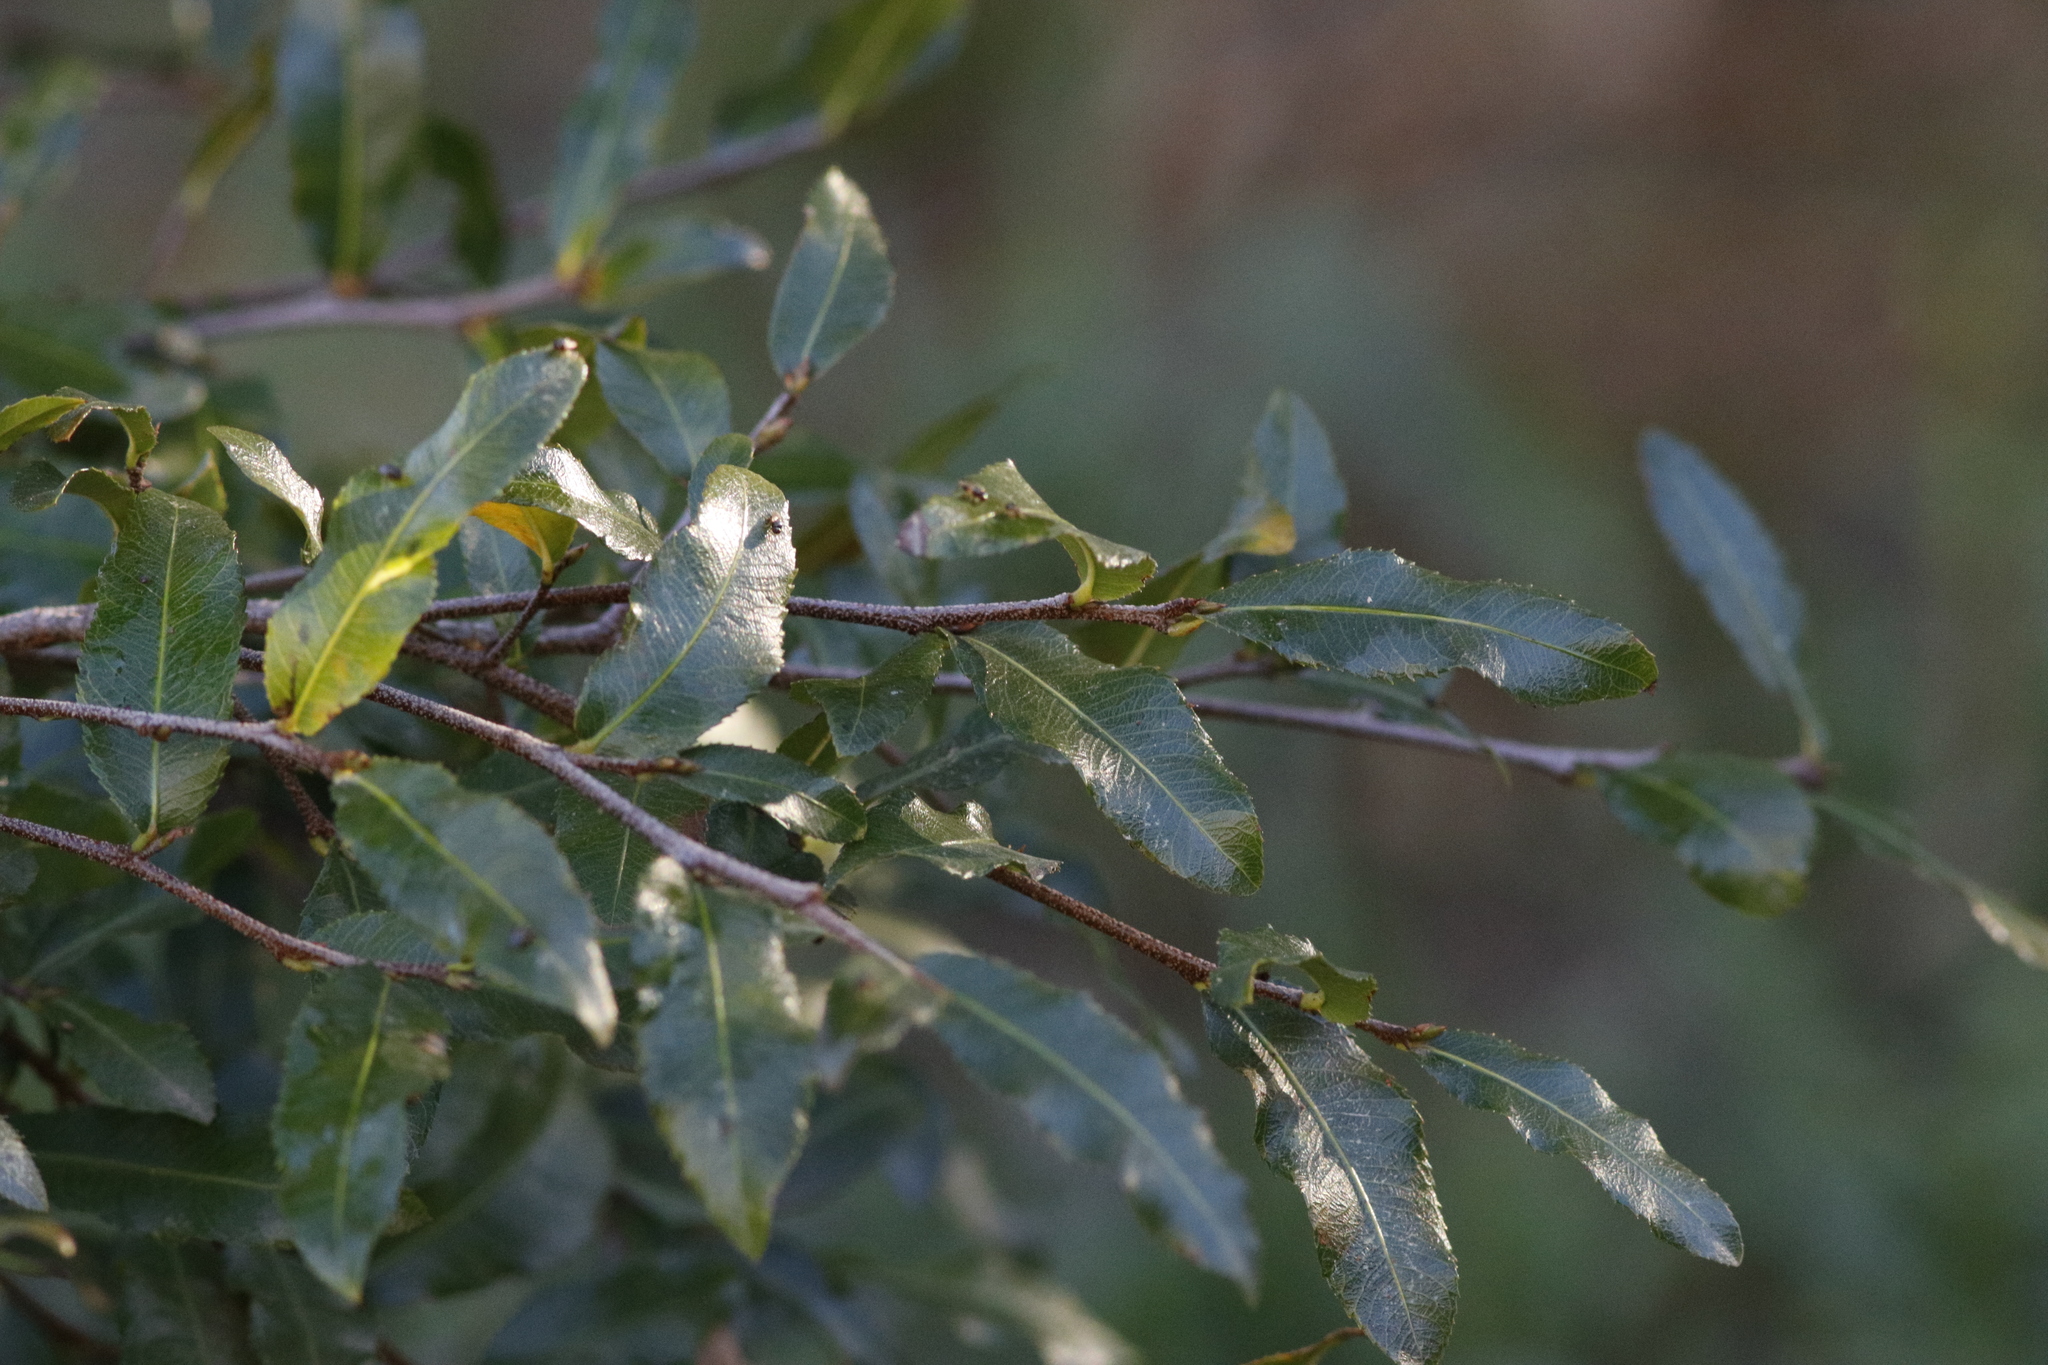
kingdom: Plantae
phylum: Tracheophyta
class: Magnoliopsida
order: Malpighiales
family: Ochnaceae
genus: Ochna
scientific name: Ochna serrulata
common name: Mickey mouse plant
